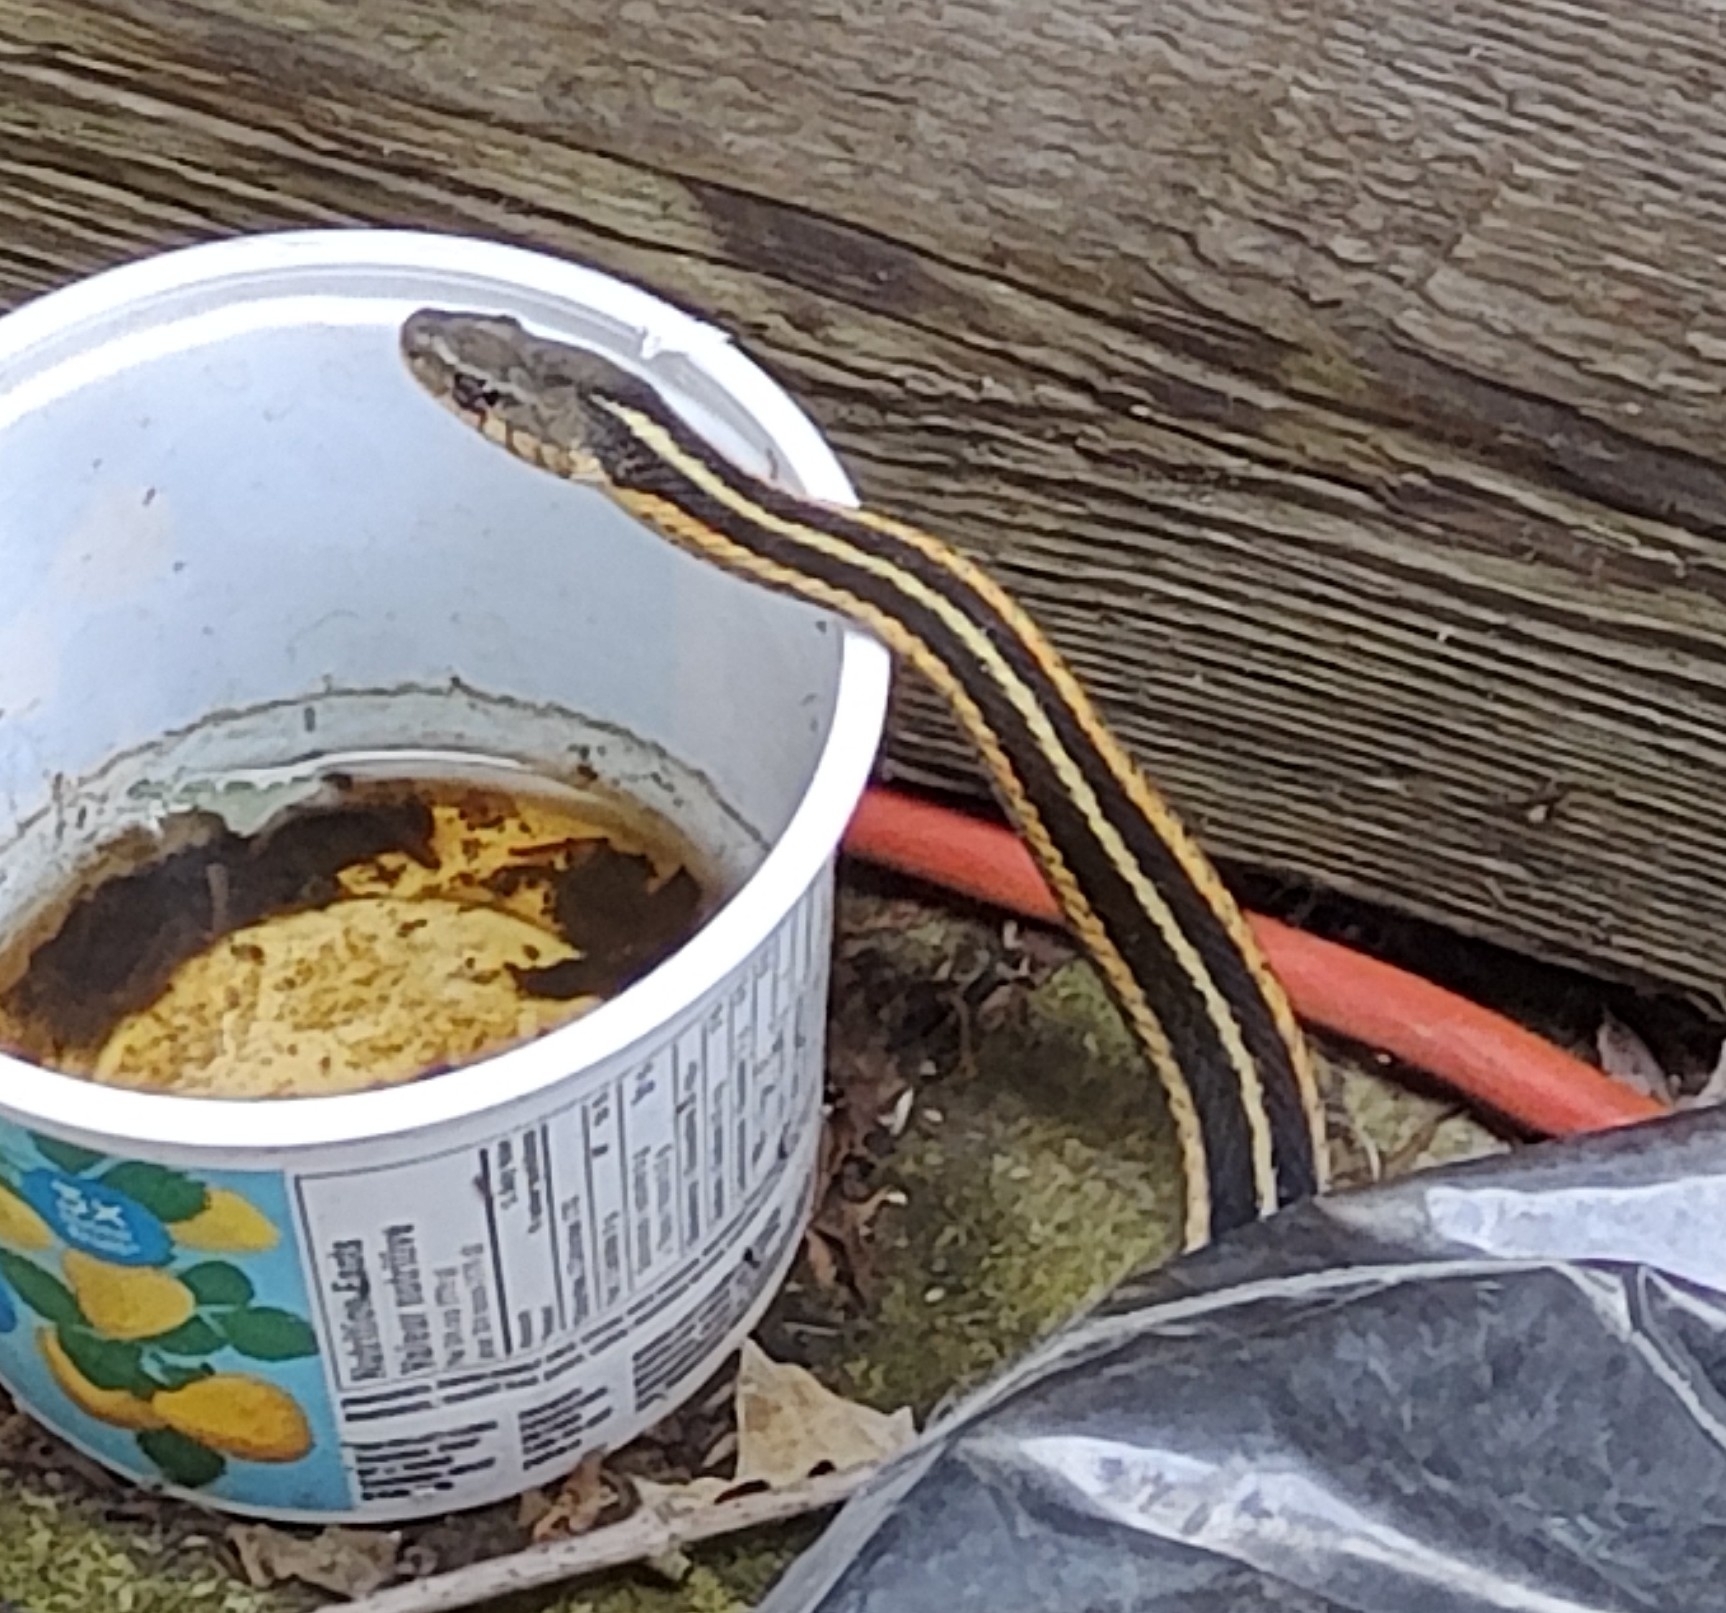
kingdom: Animalia
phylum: Chordata
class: Squamata
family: Colubridae
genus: Thamnophis
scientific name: Thamnophis sirtalis
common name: Common garter snake
